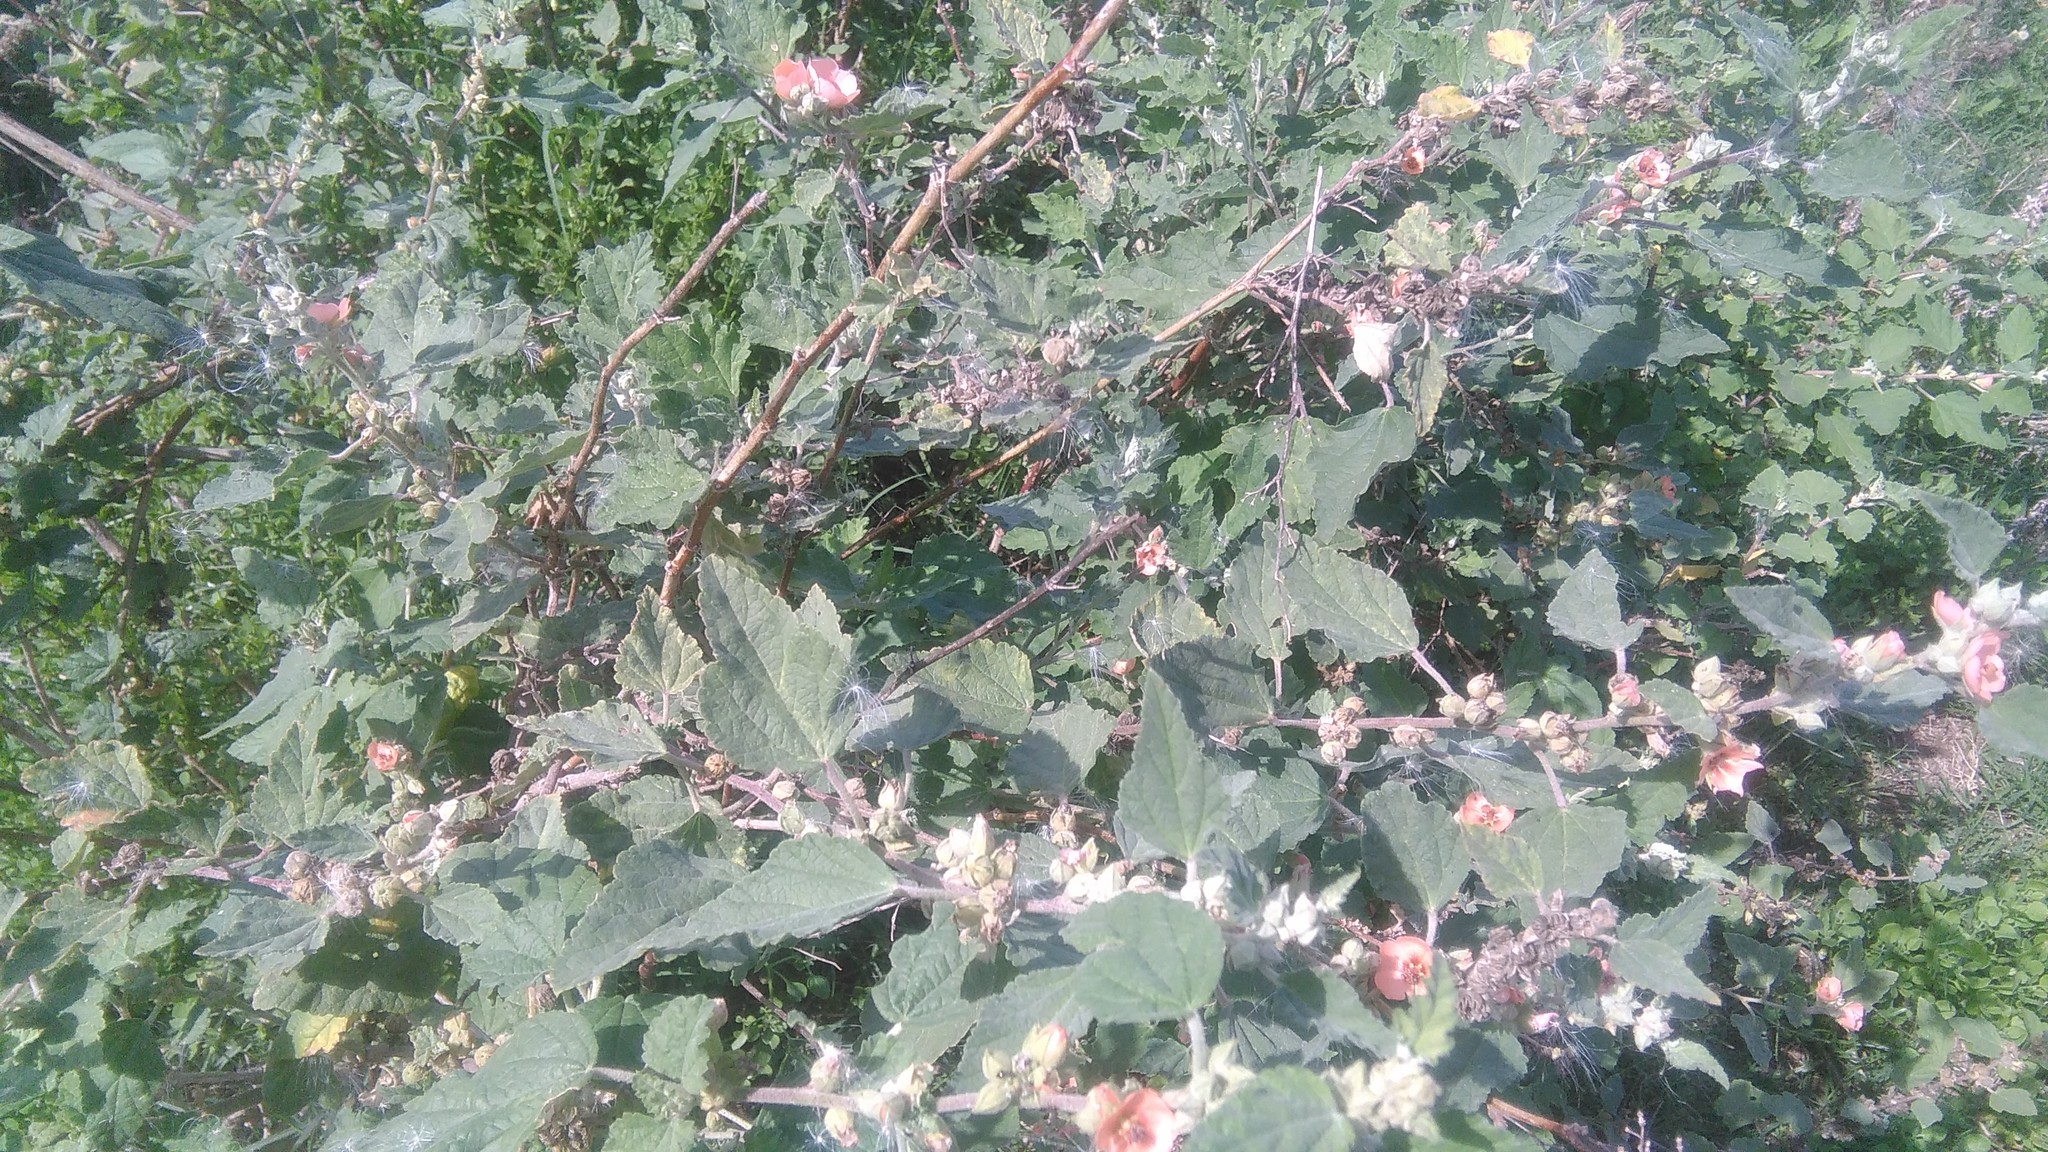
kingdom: Plantae
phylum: Tracheophyta
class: Magnoliopsida
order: Malvales
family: Malvaceae
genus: Sphaeralcea
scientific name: Sphaeralcea bonariensis
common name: Latin globemallow
